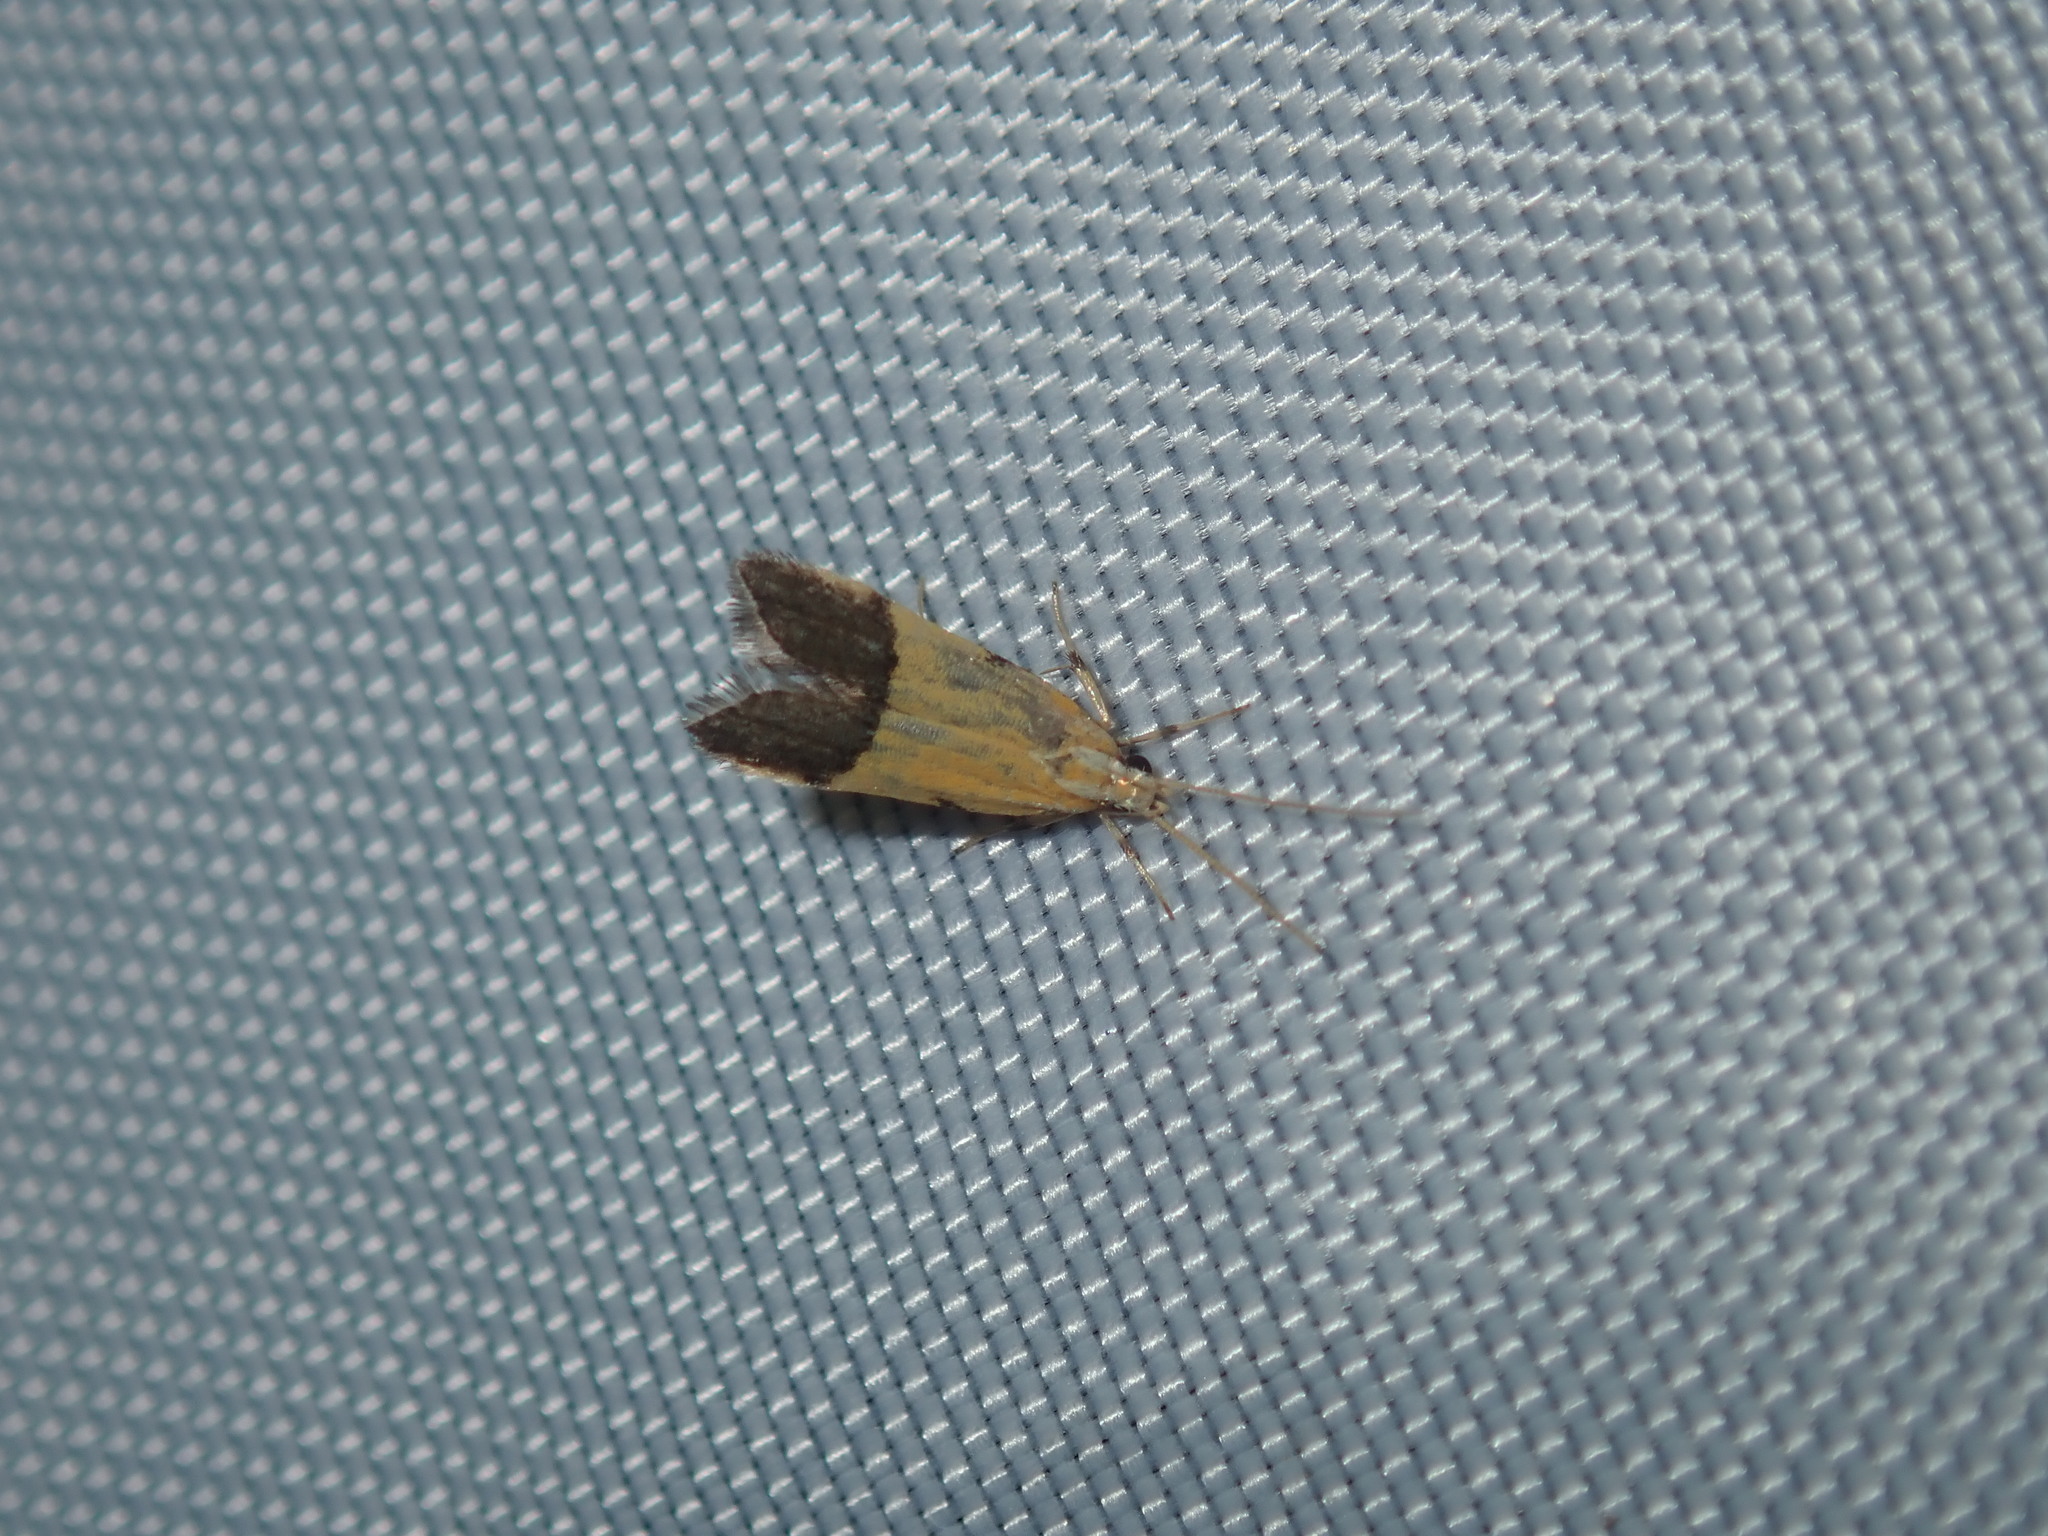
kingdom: Animalia
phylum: Arthropoda
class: Insecta
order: Lepidoptera
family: Lecithoceridae
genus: Crocanthes
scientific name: Crocanthes micradelpha
